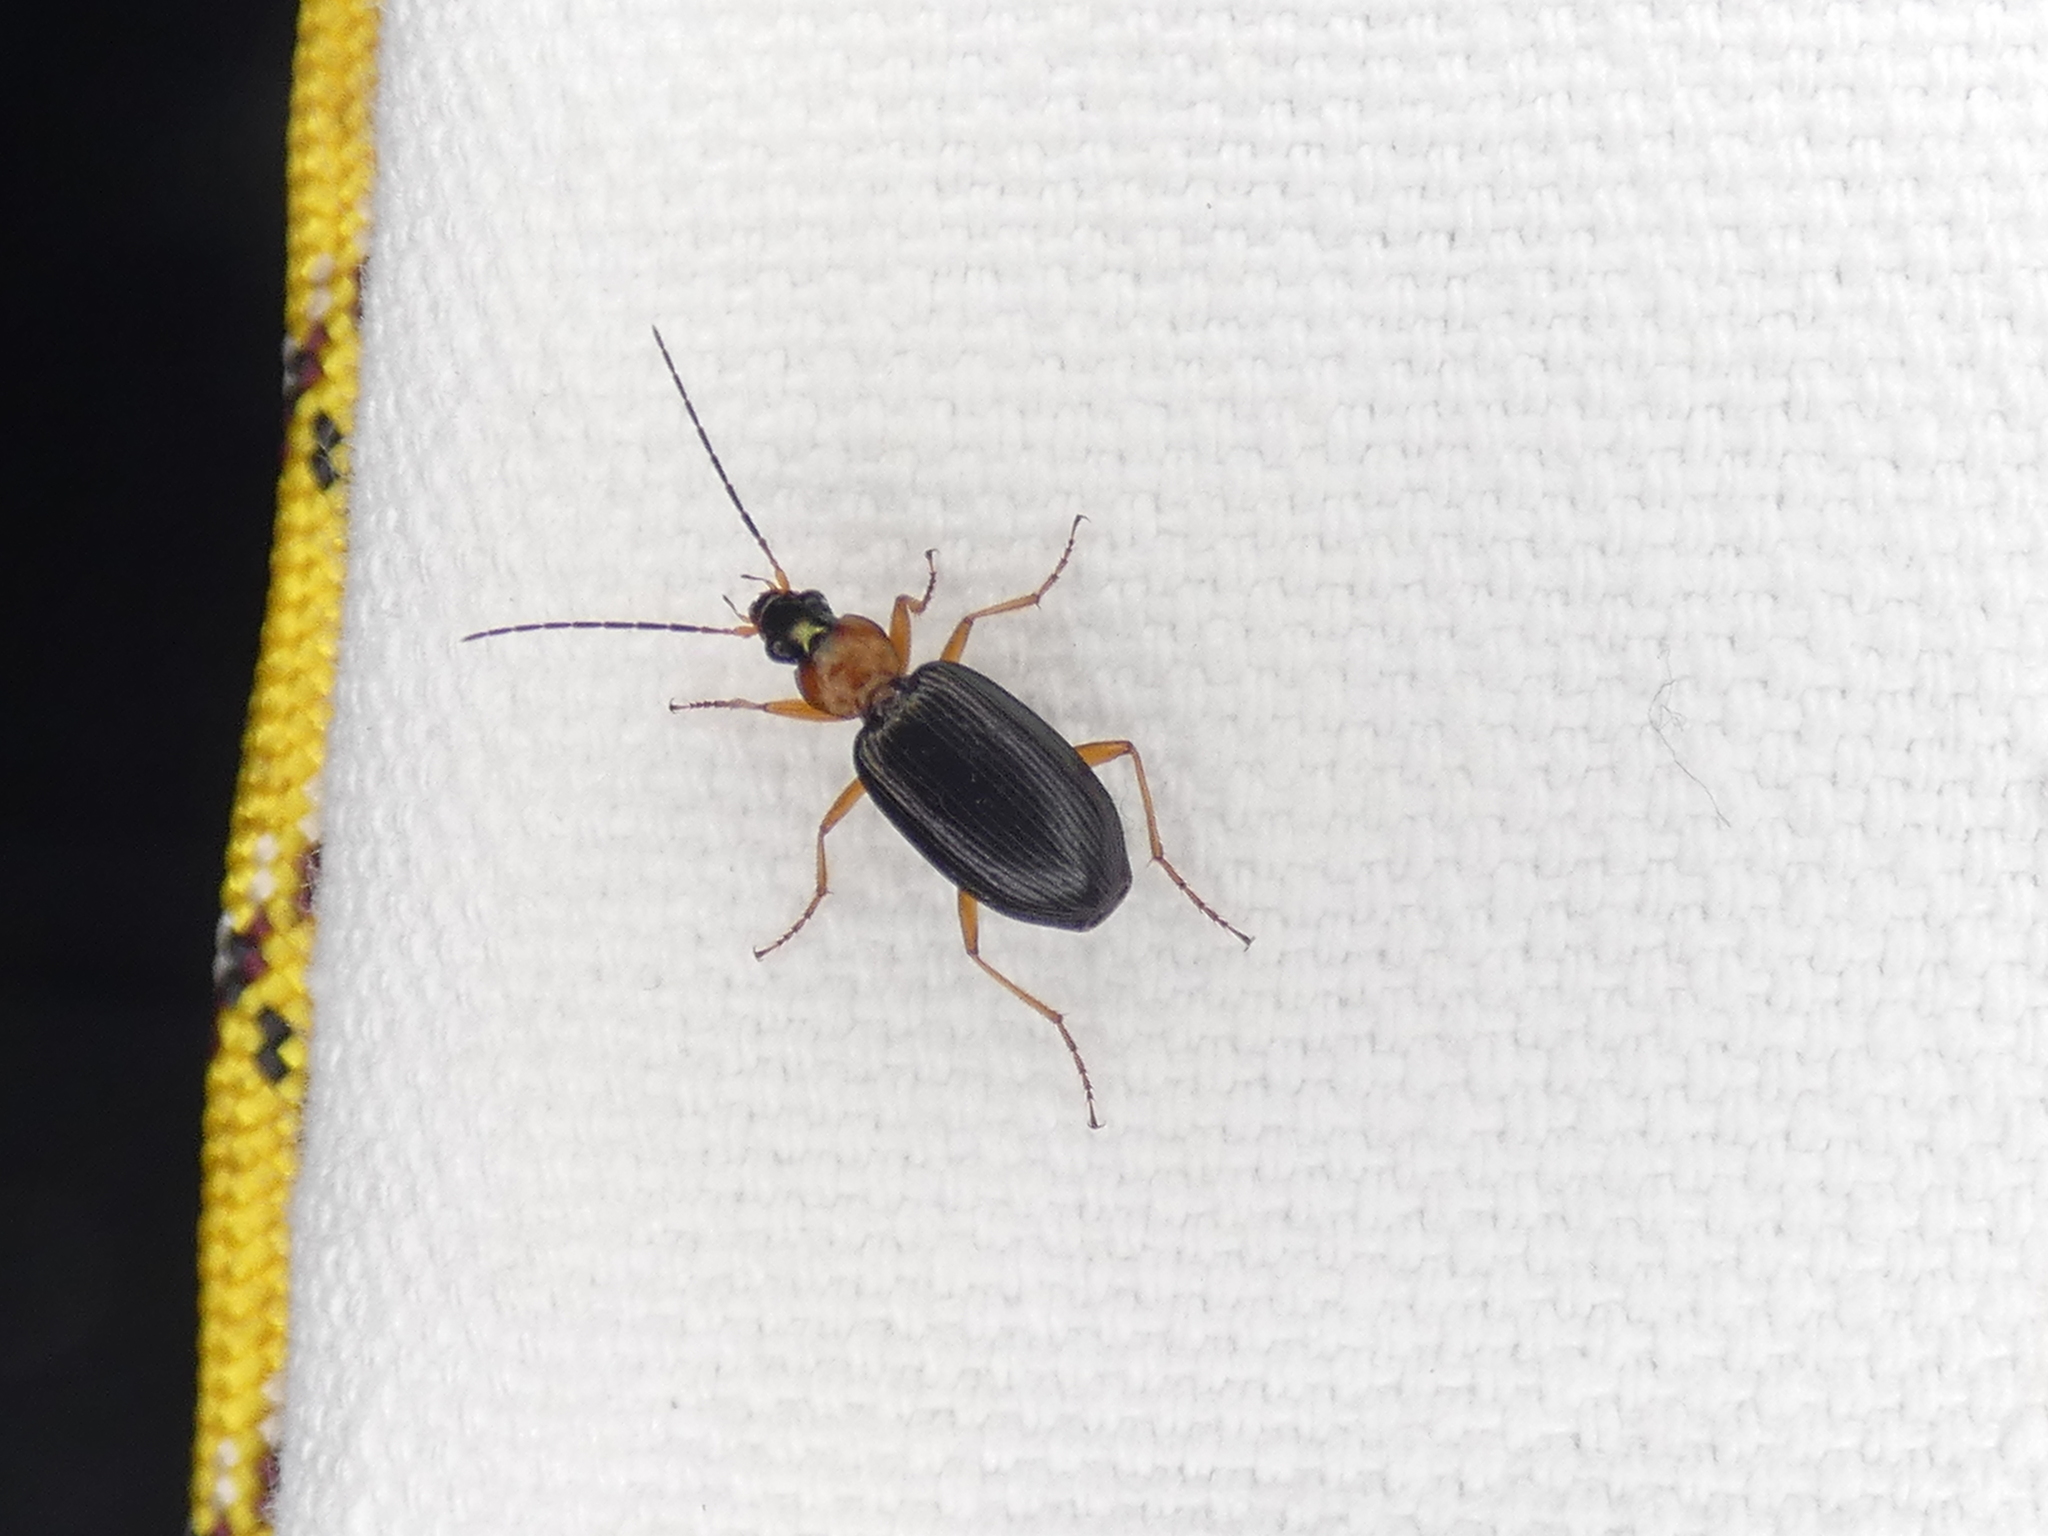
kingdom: Animalia
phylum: Arthropoda
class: Insecta
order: Coleoptera
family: Carabidae
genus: Agonum
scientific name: Agonum decorum
